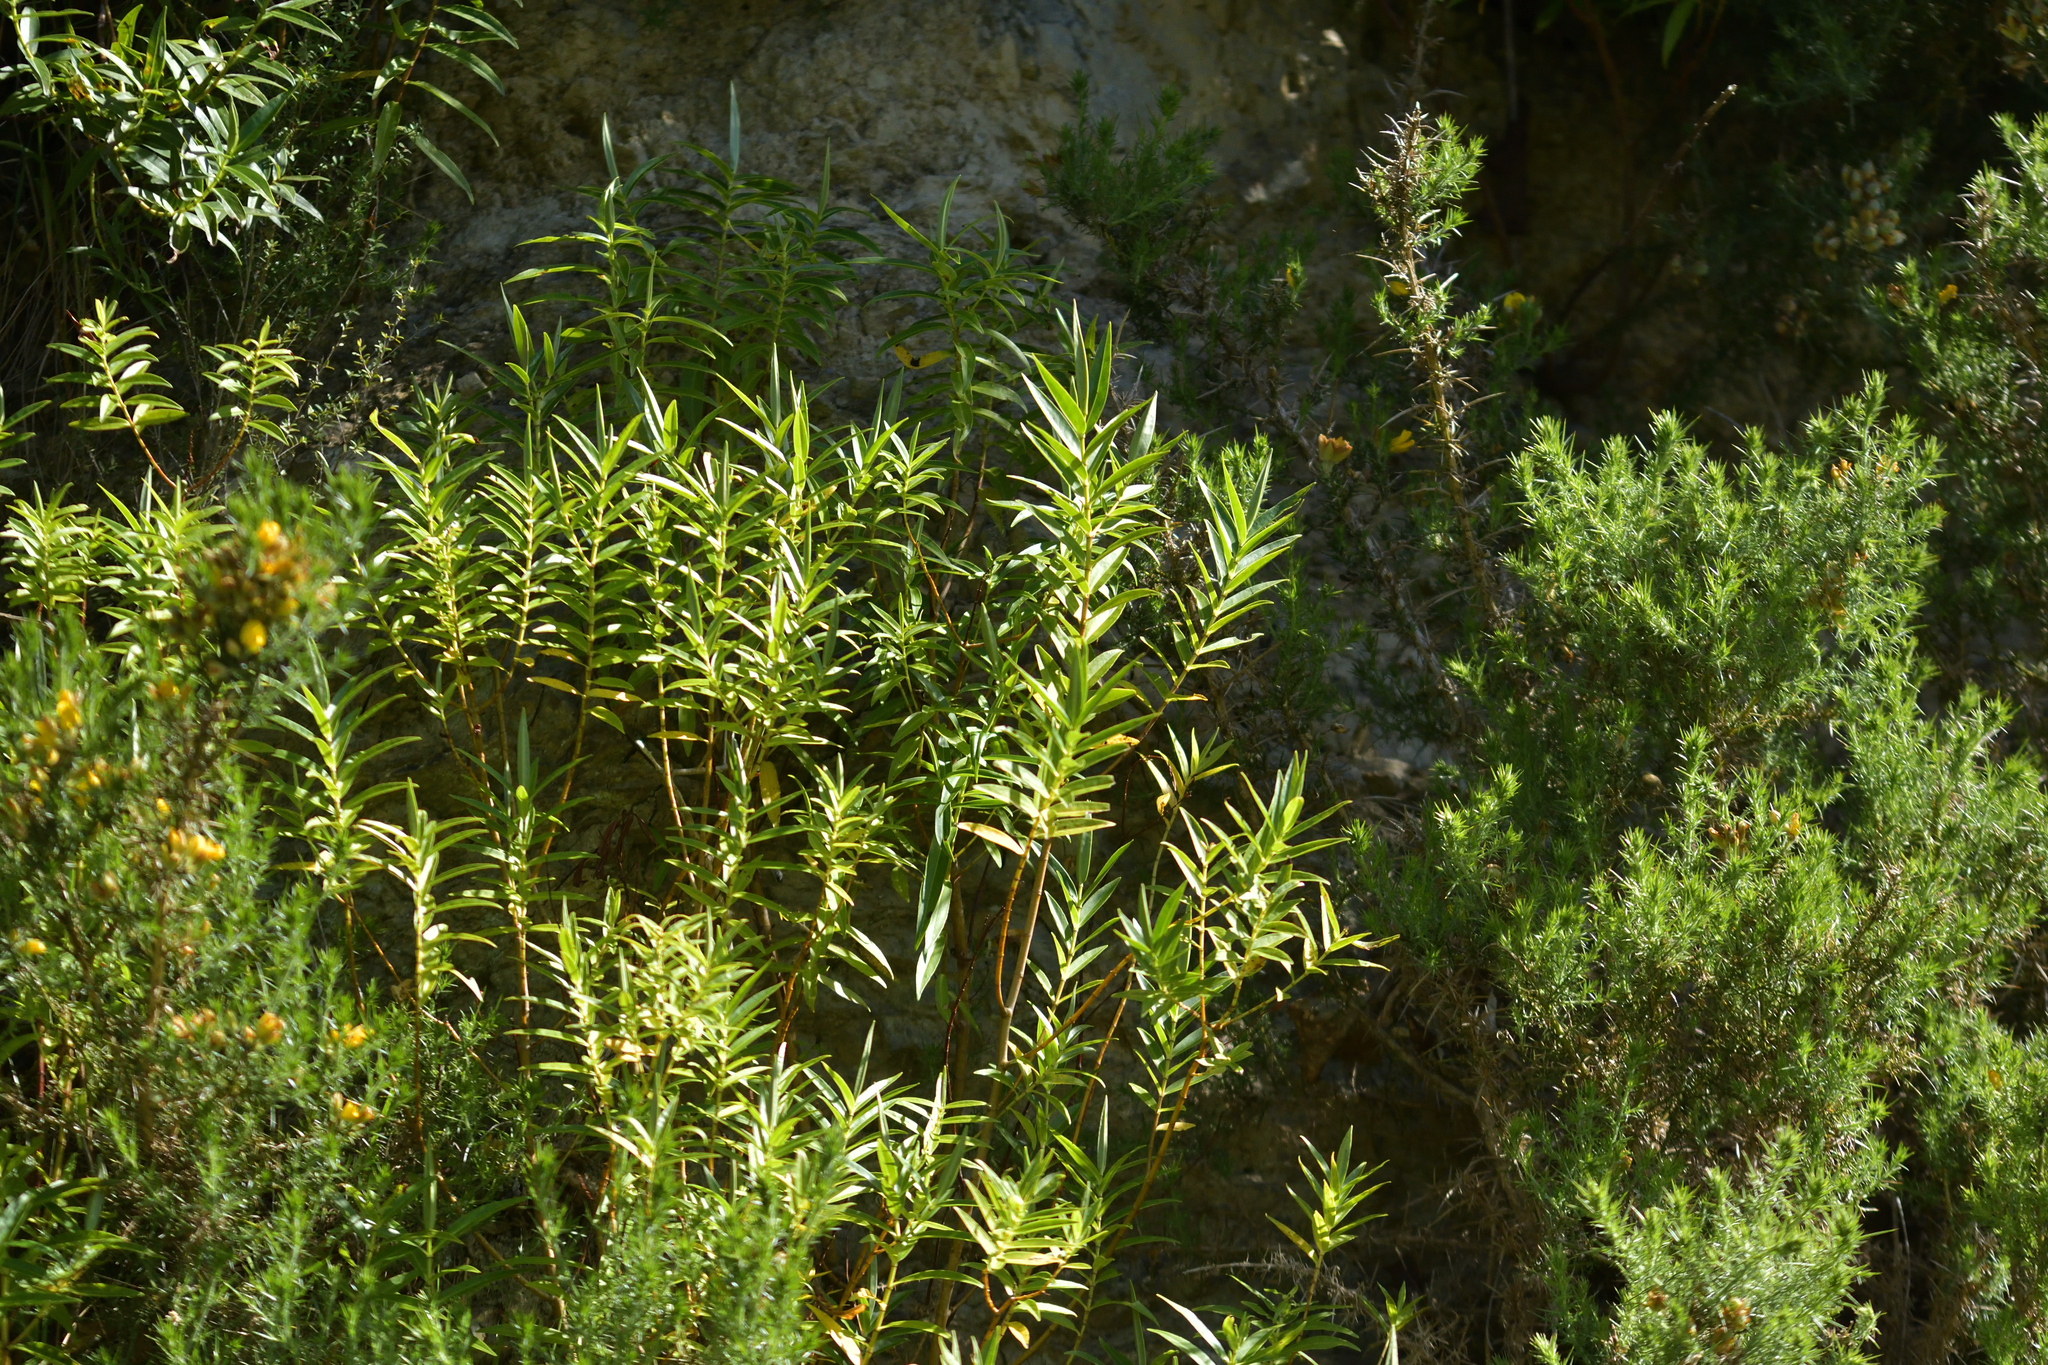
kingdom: Plantae
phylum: Tracheophyta
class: Magnoliopsida
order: Lamiales
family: Plantaginaceae
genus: Veronica
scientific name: Veronica stricta
